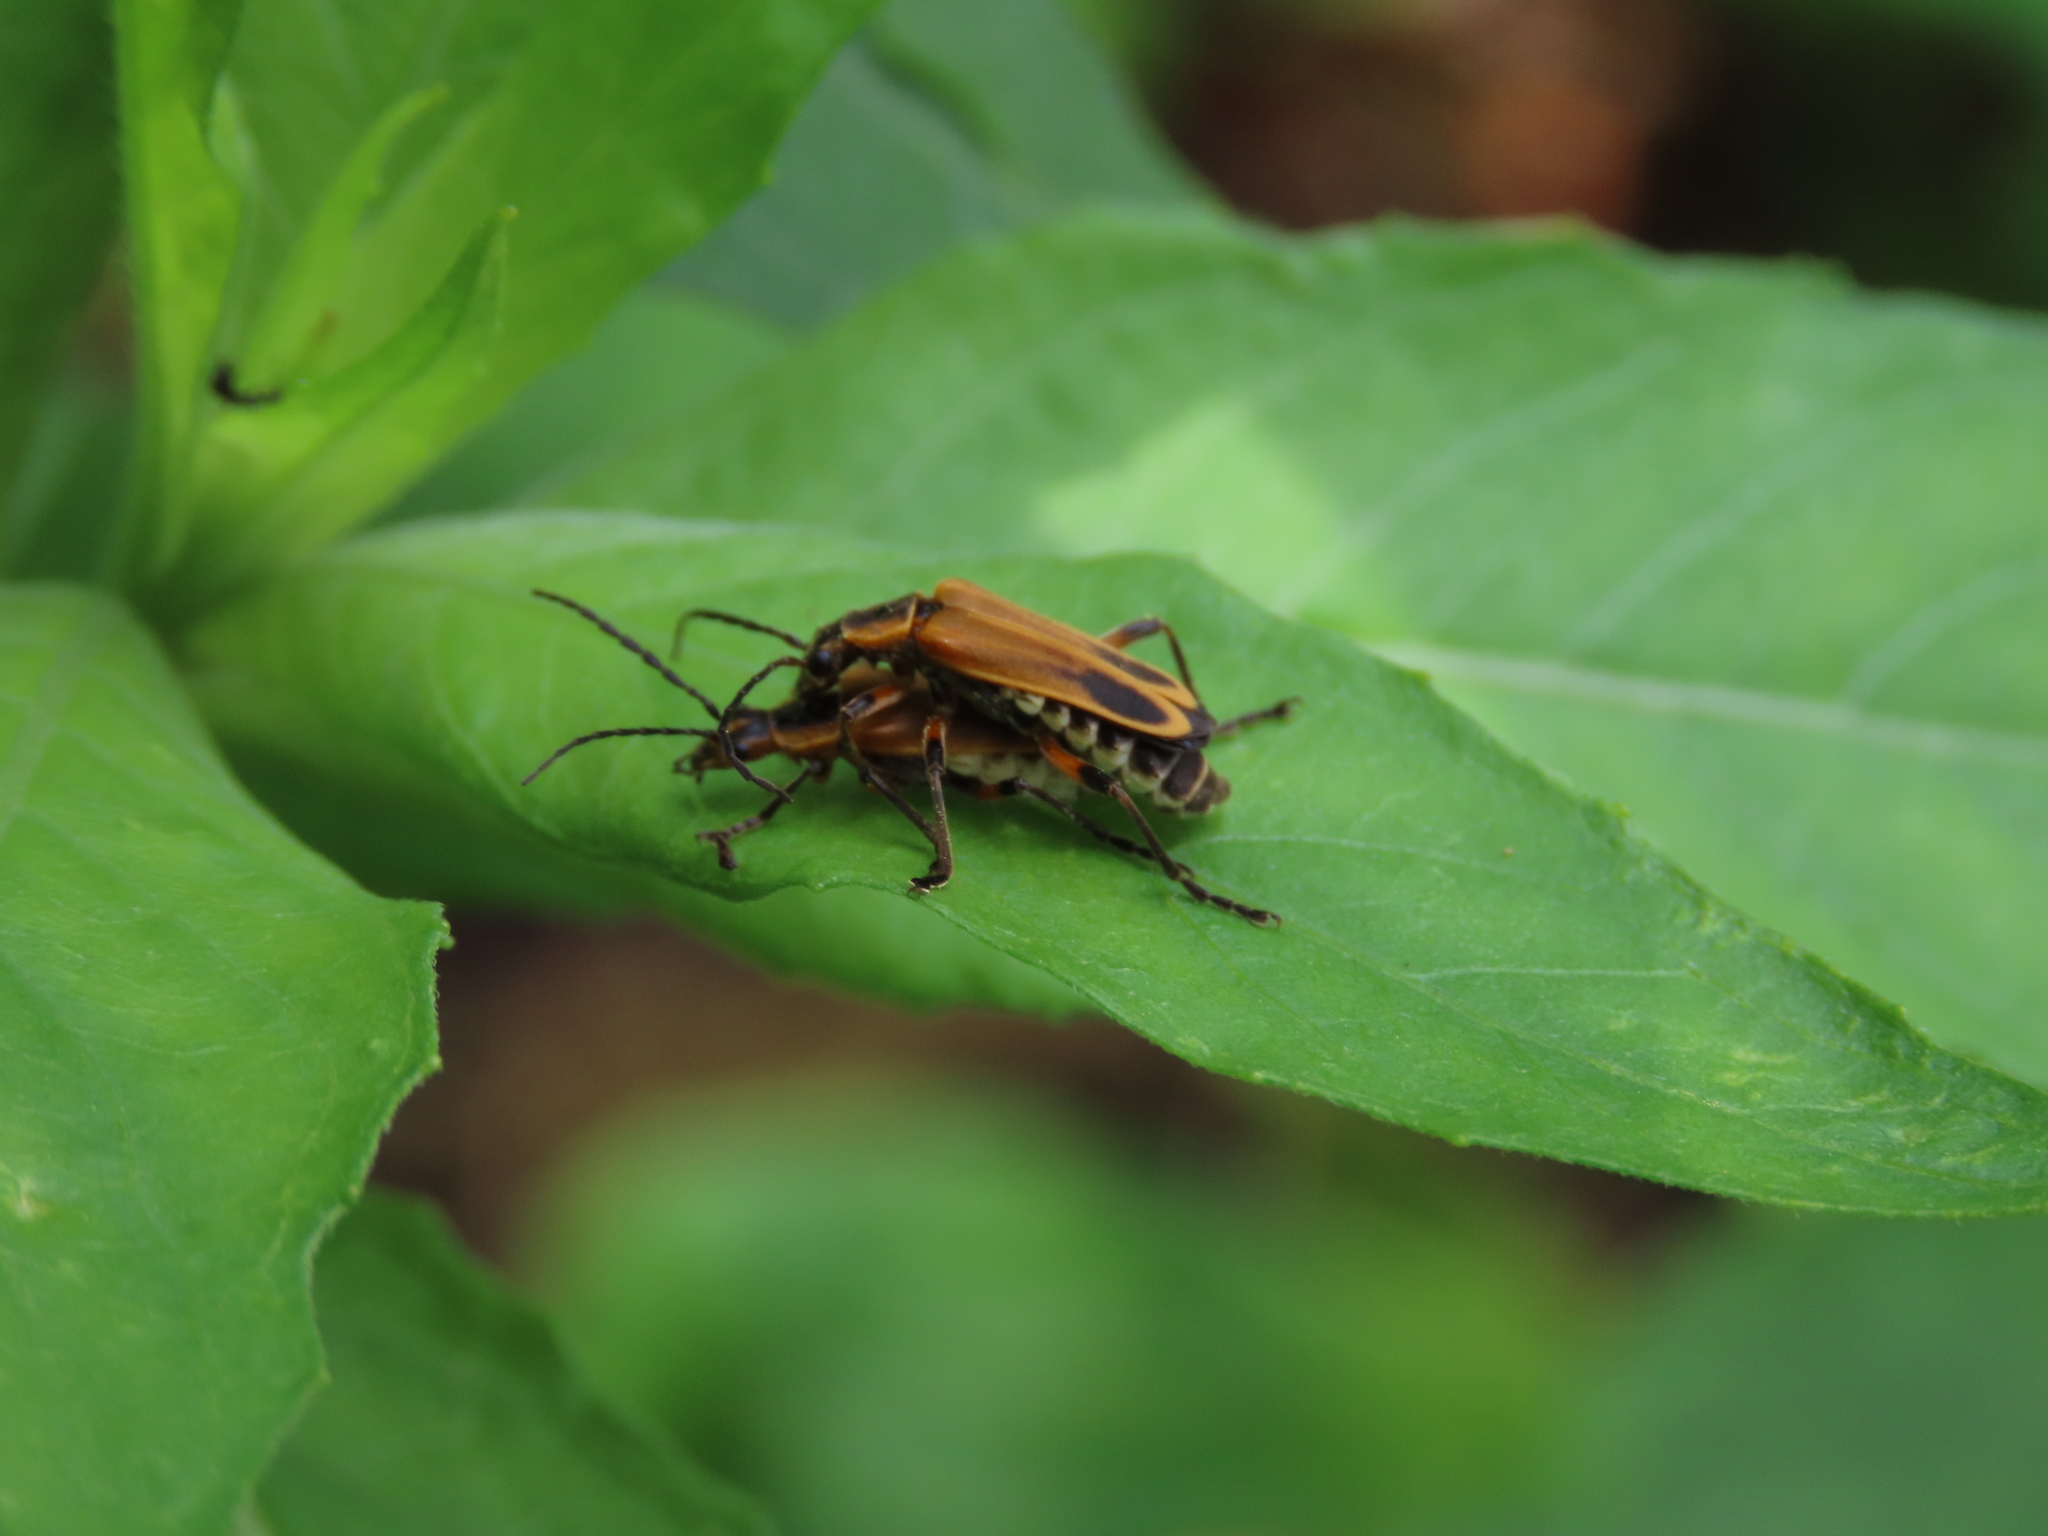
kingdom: Animalia
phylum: Arthropoda
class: Insecta
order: Coleoptera
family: Cantharidae
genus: Chauliognathus
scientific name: Chauliognathus marginatus
